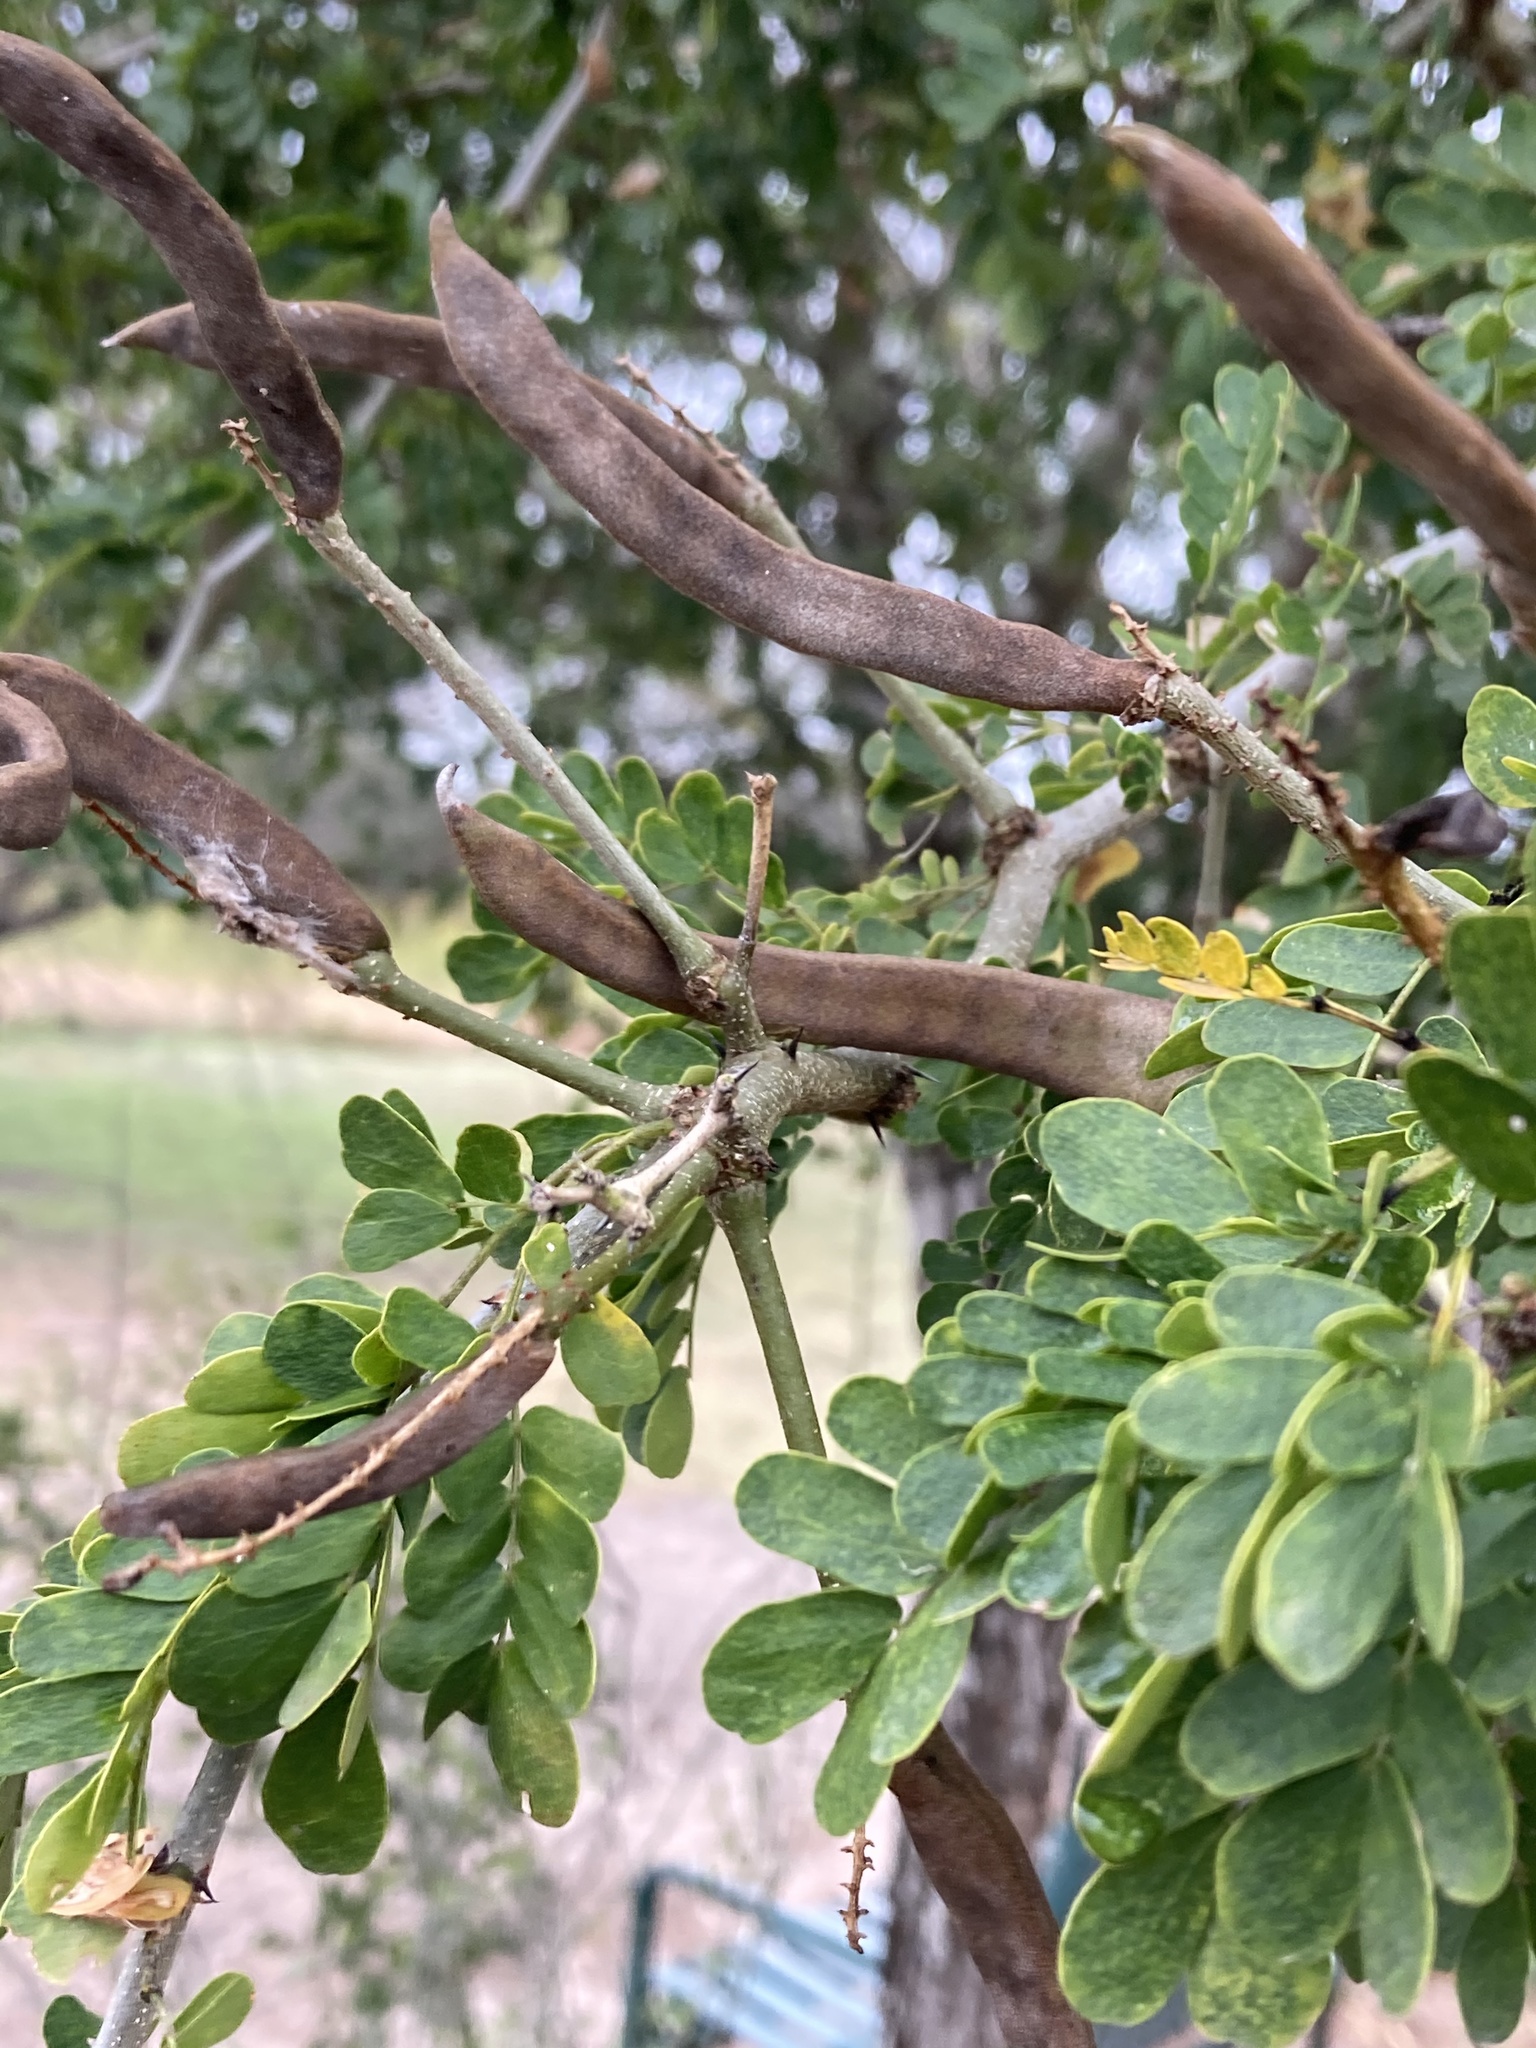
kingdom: Plantae
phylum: Tracheophyta
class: Magnoliopsida
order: Fabales
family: Fabaceae
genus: Ebenopsis
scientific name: Ebenopsis ebano
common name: Ebony blackbead
